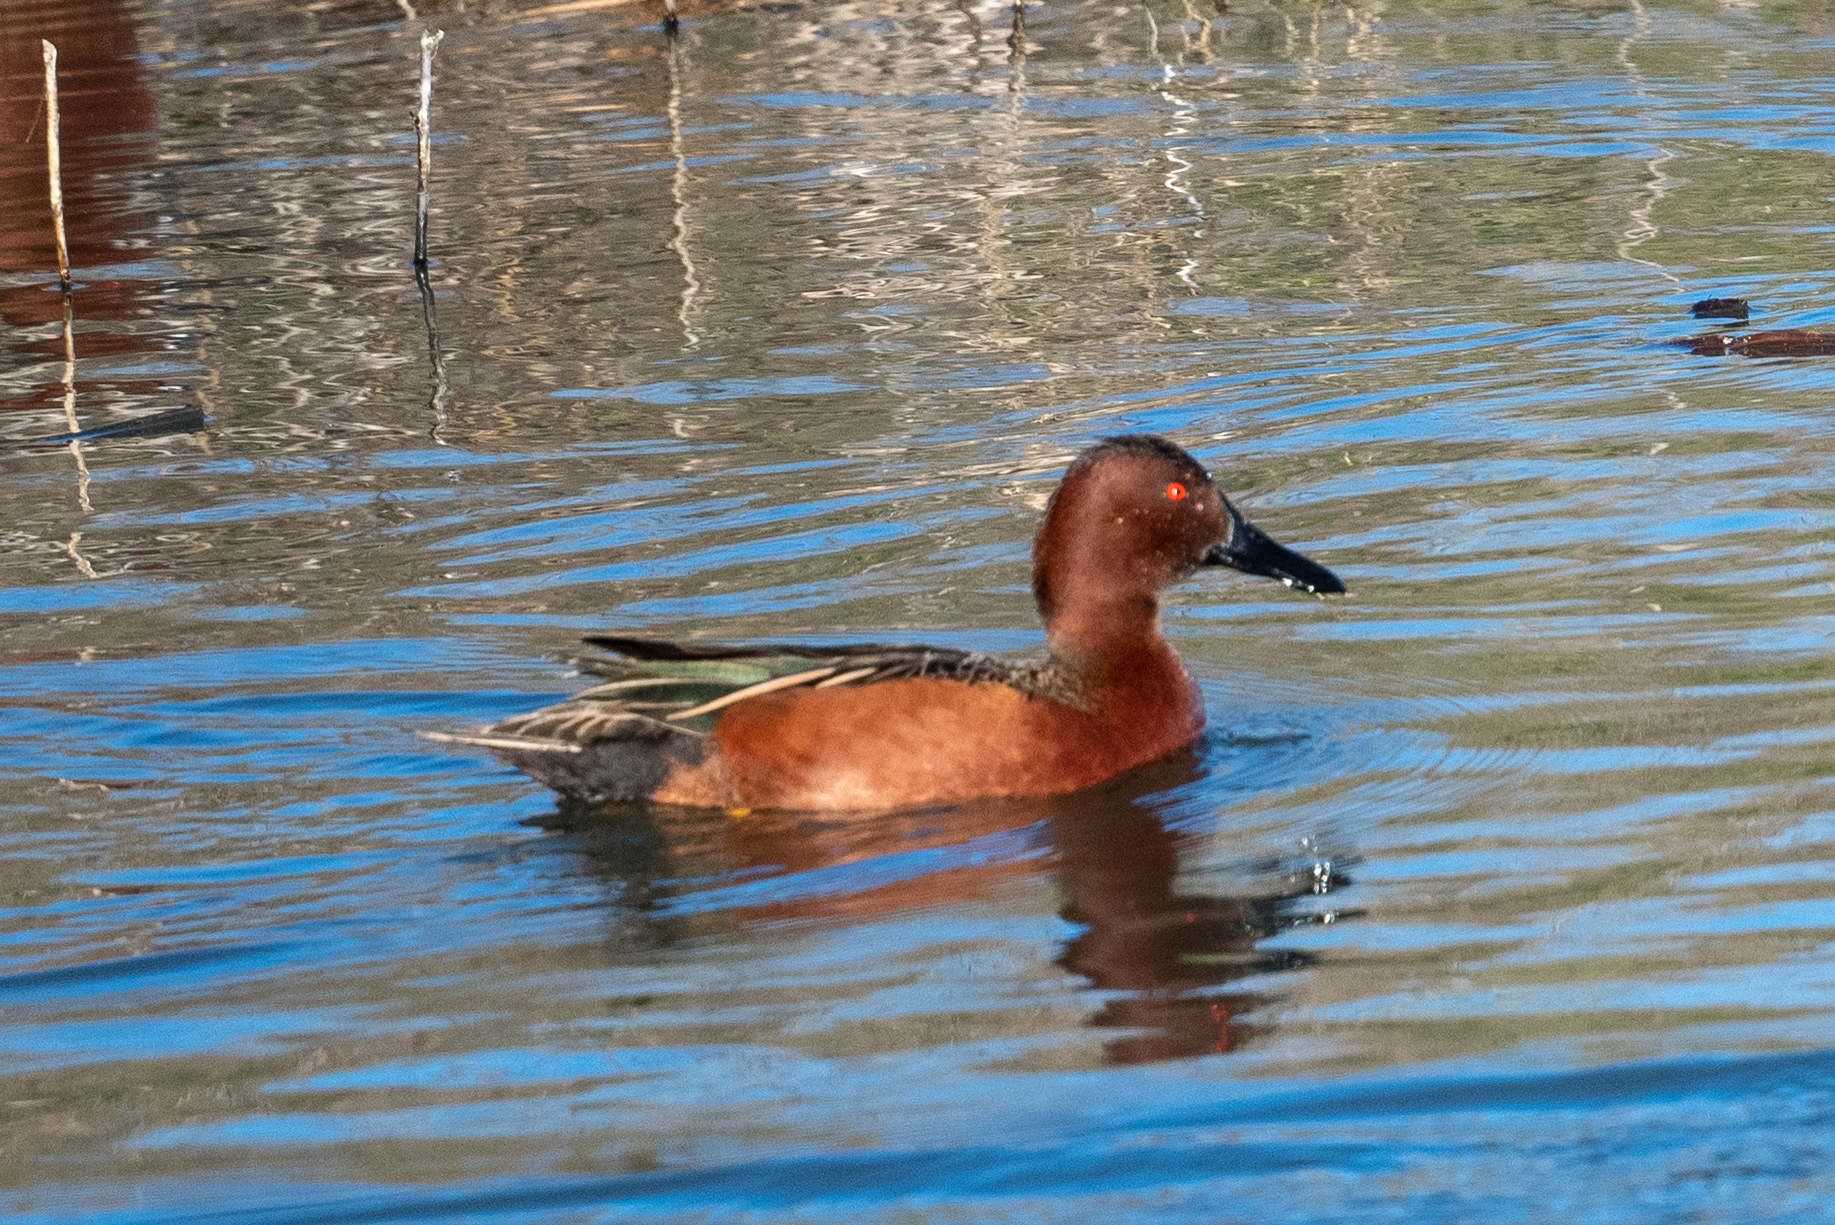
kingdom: Animalia
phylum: Chordata
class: Aves
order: Anseriformes
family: Anatidae
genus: Spatula
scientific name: Spatula cyanoptera
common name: Cinnamon teal
